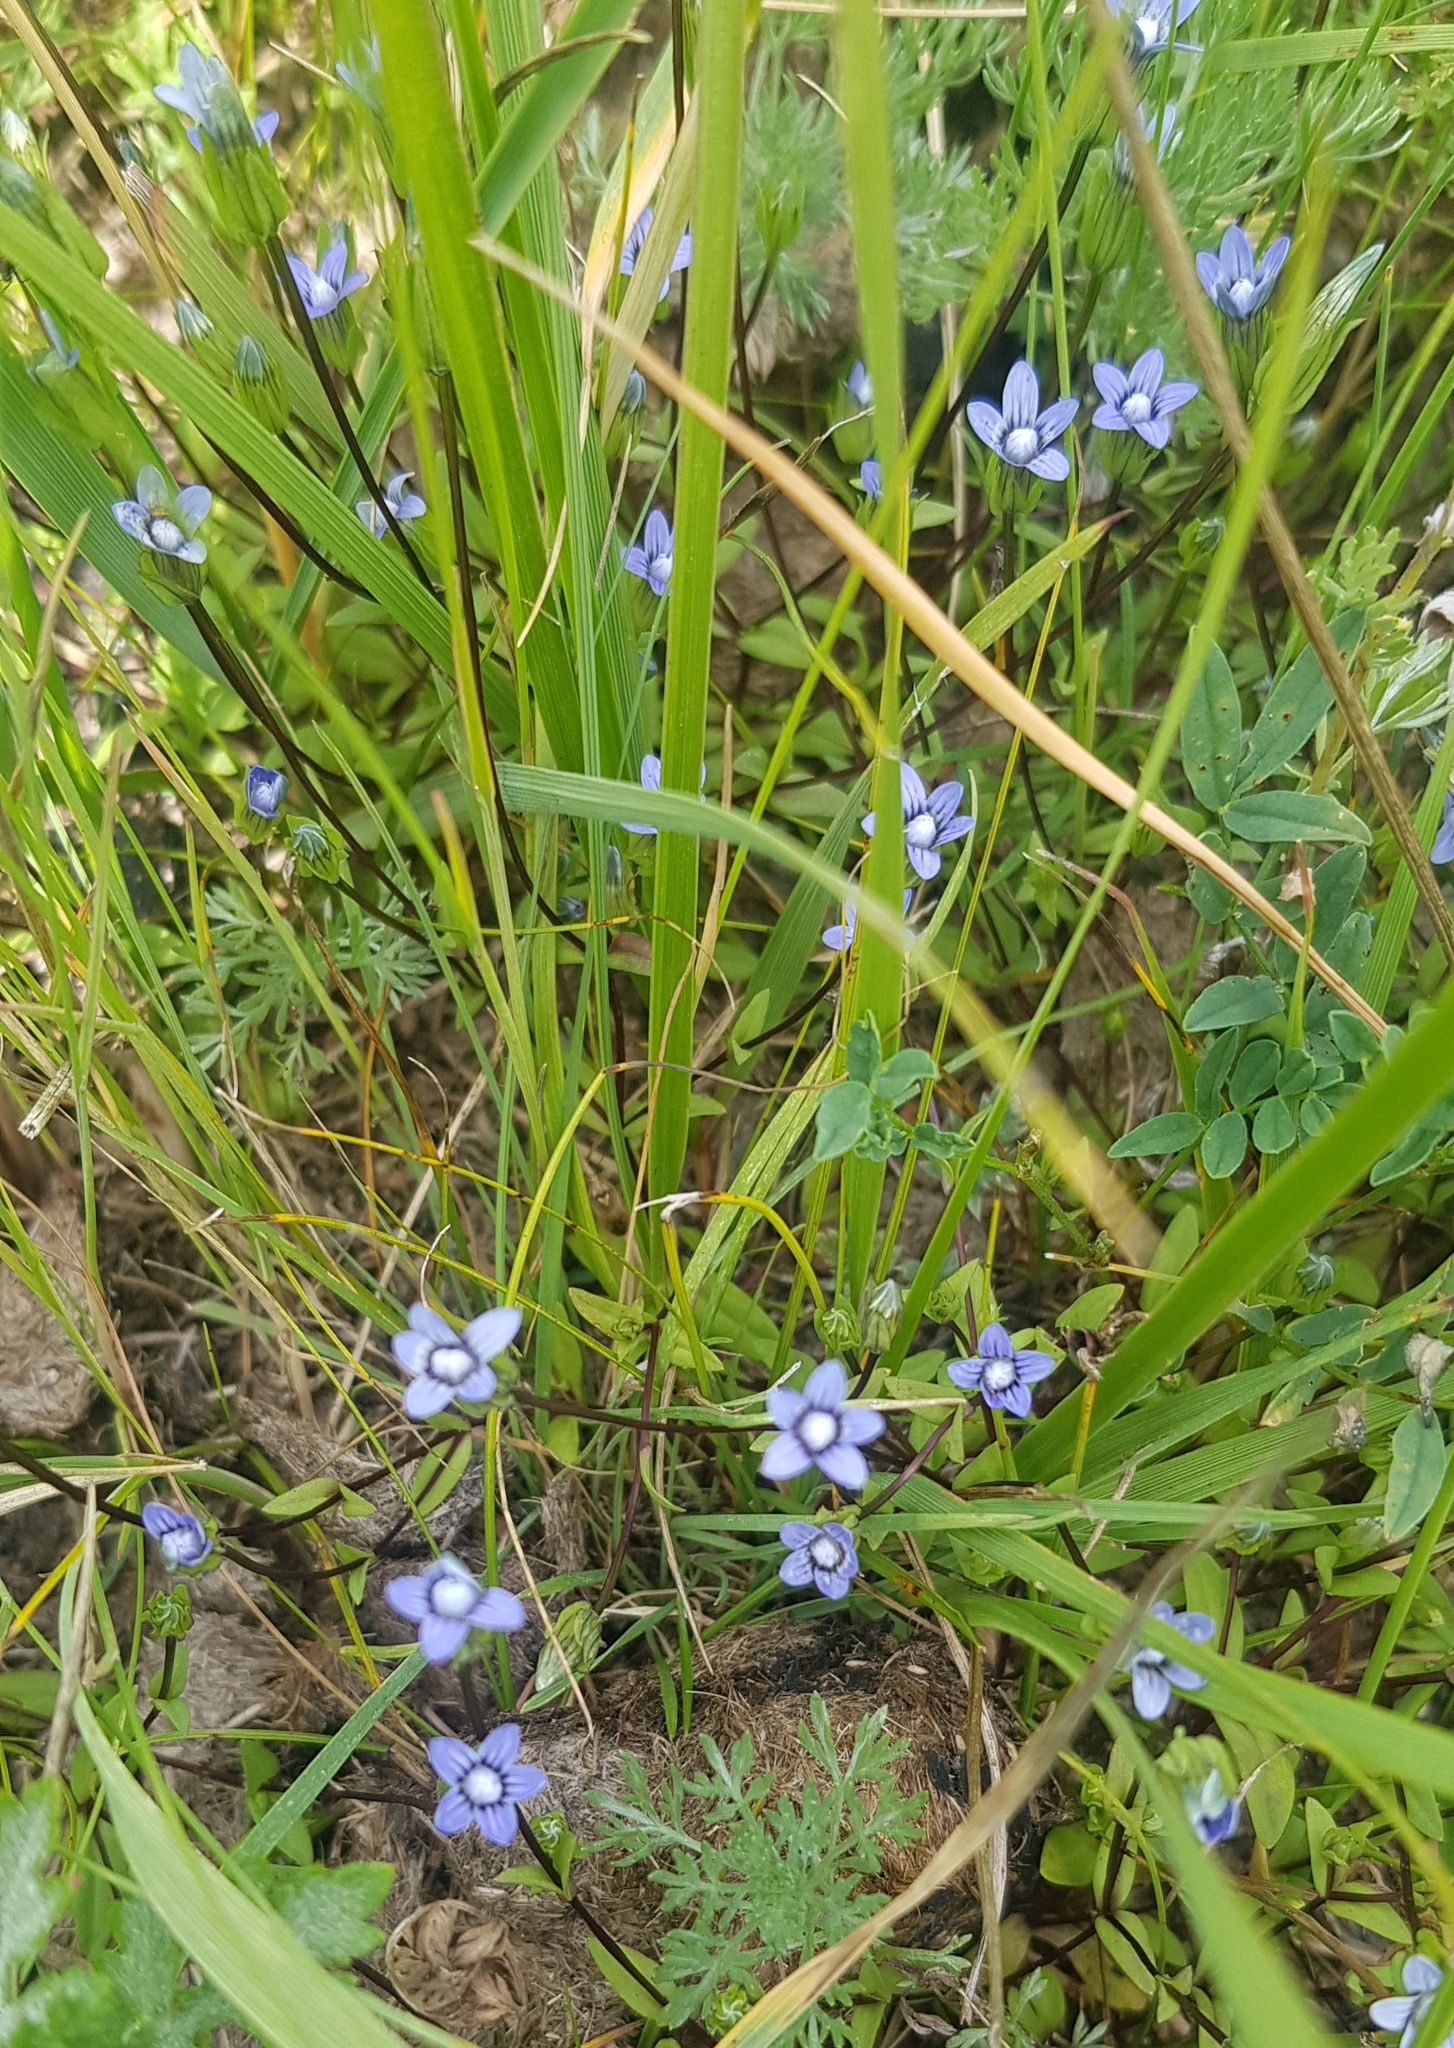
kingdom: Plantae
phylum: Tracheophyta
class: Magnoliopsida
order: Gentianales
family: Gentianaceae
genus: Comastoma
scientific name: Comastoma tenellum
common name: Dane's dwarf gentian
